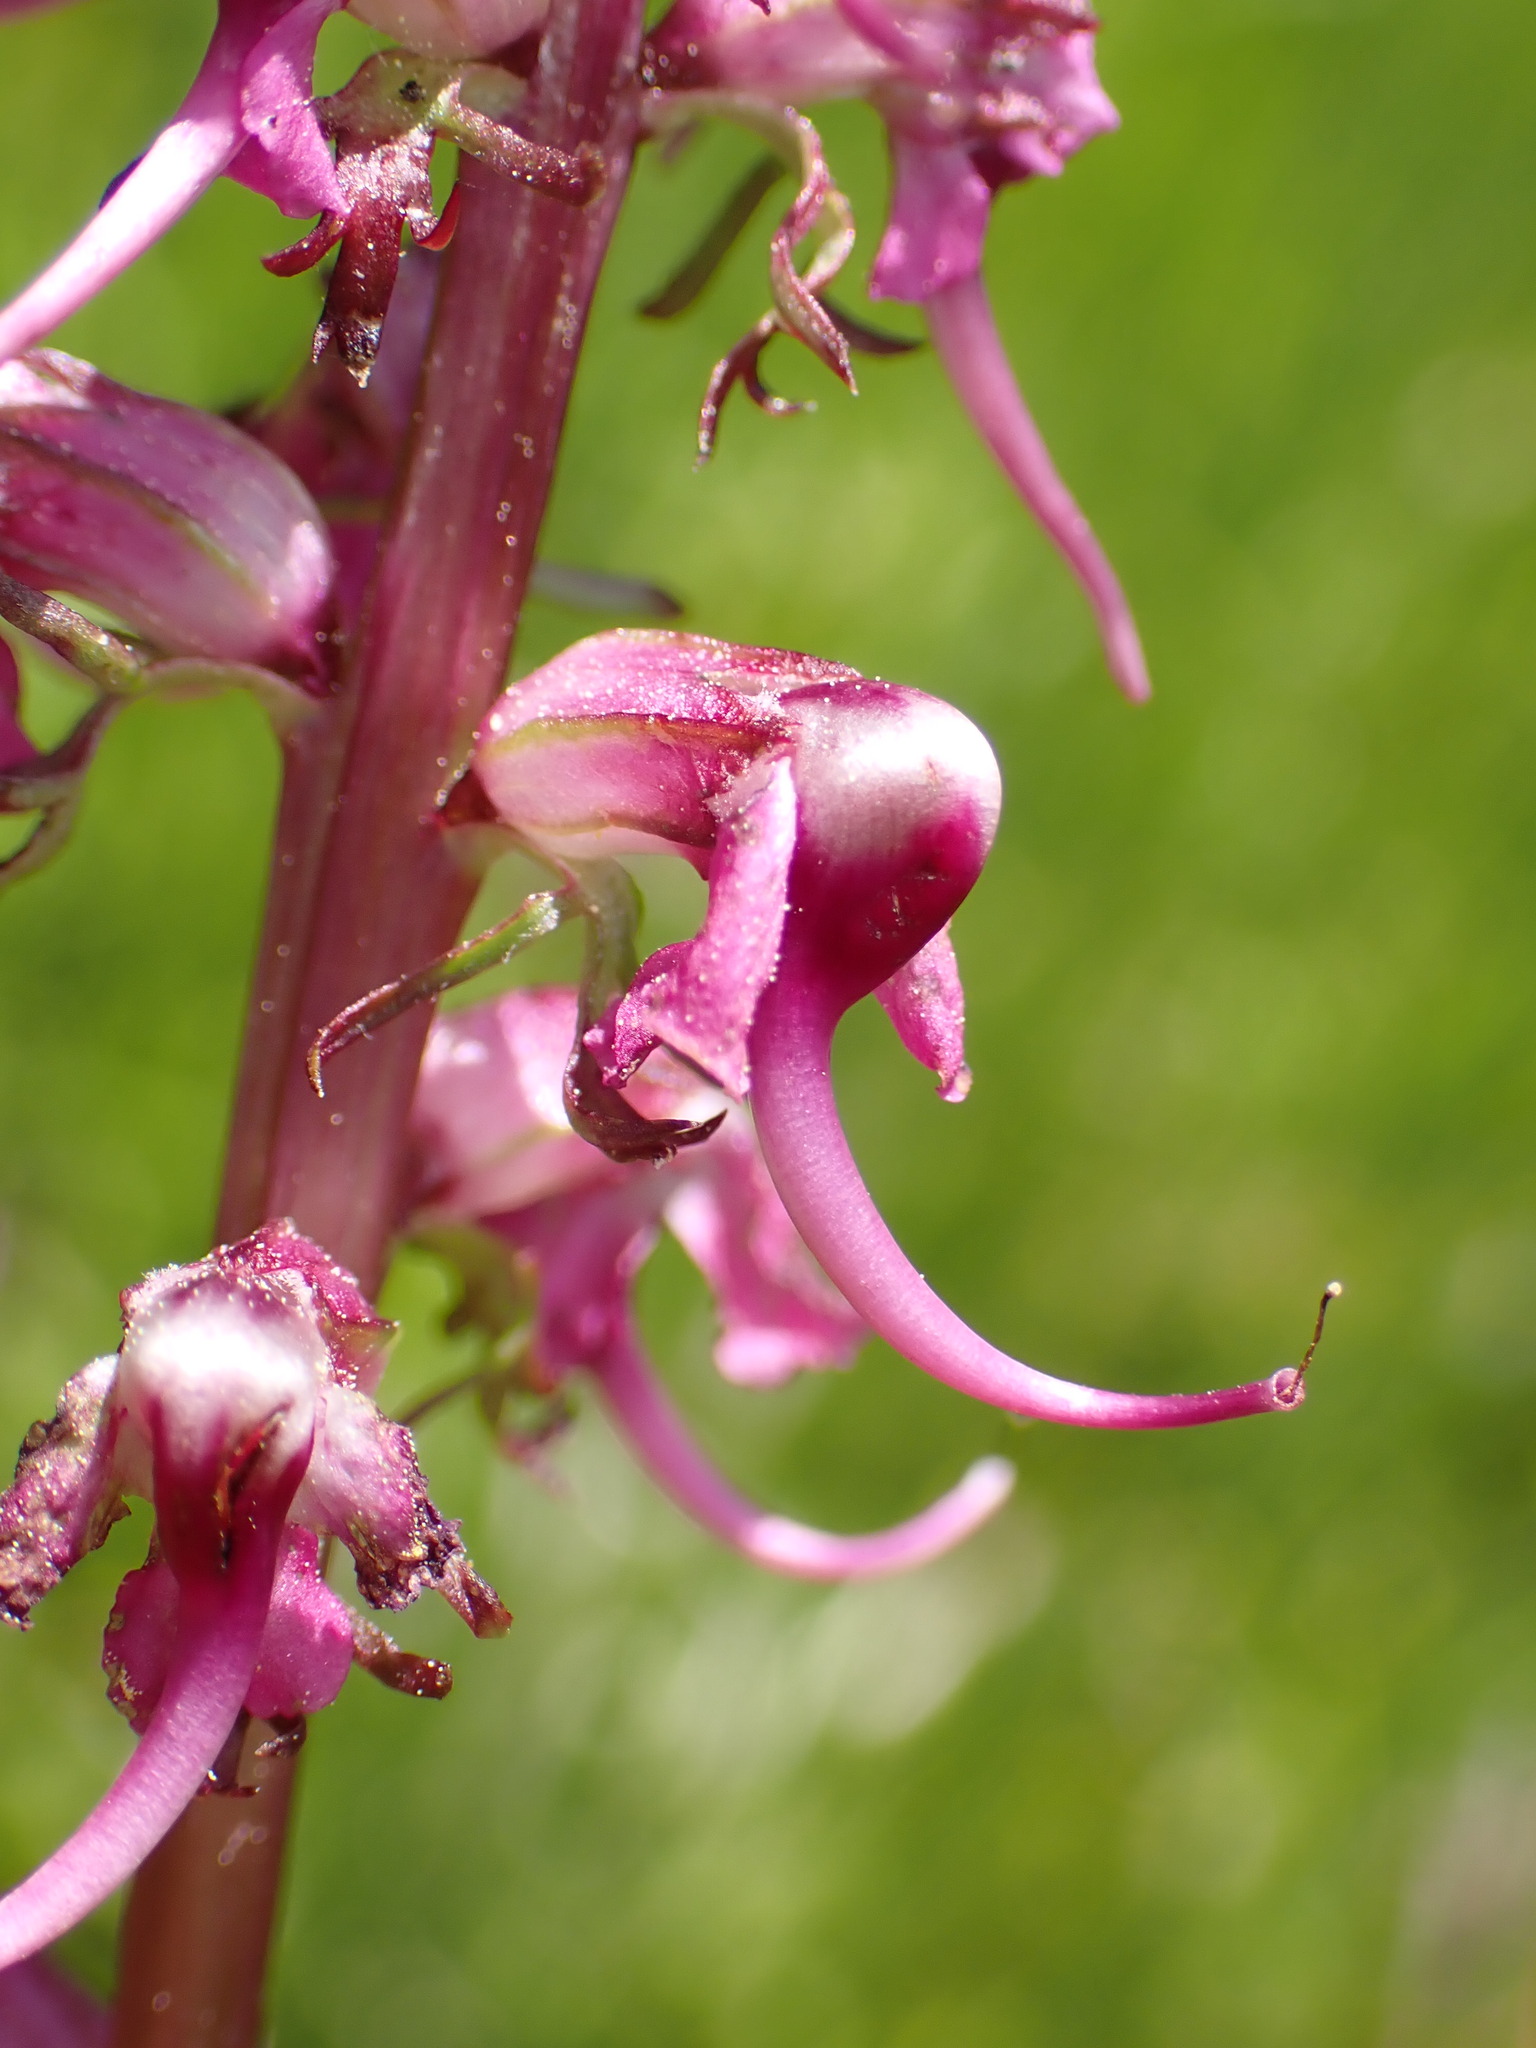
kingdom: Plantae
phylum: Tracheophyta
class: Magnoliopsida
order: Lamiales
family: Orobanchaceae
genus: Pedicularis
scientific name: Pedicularis groenlandica
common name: Elephant's-head
